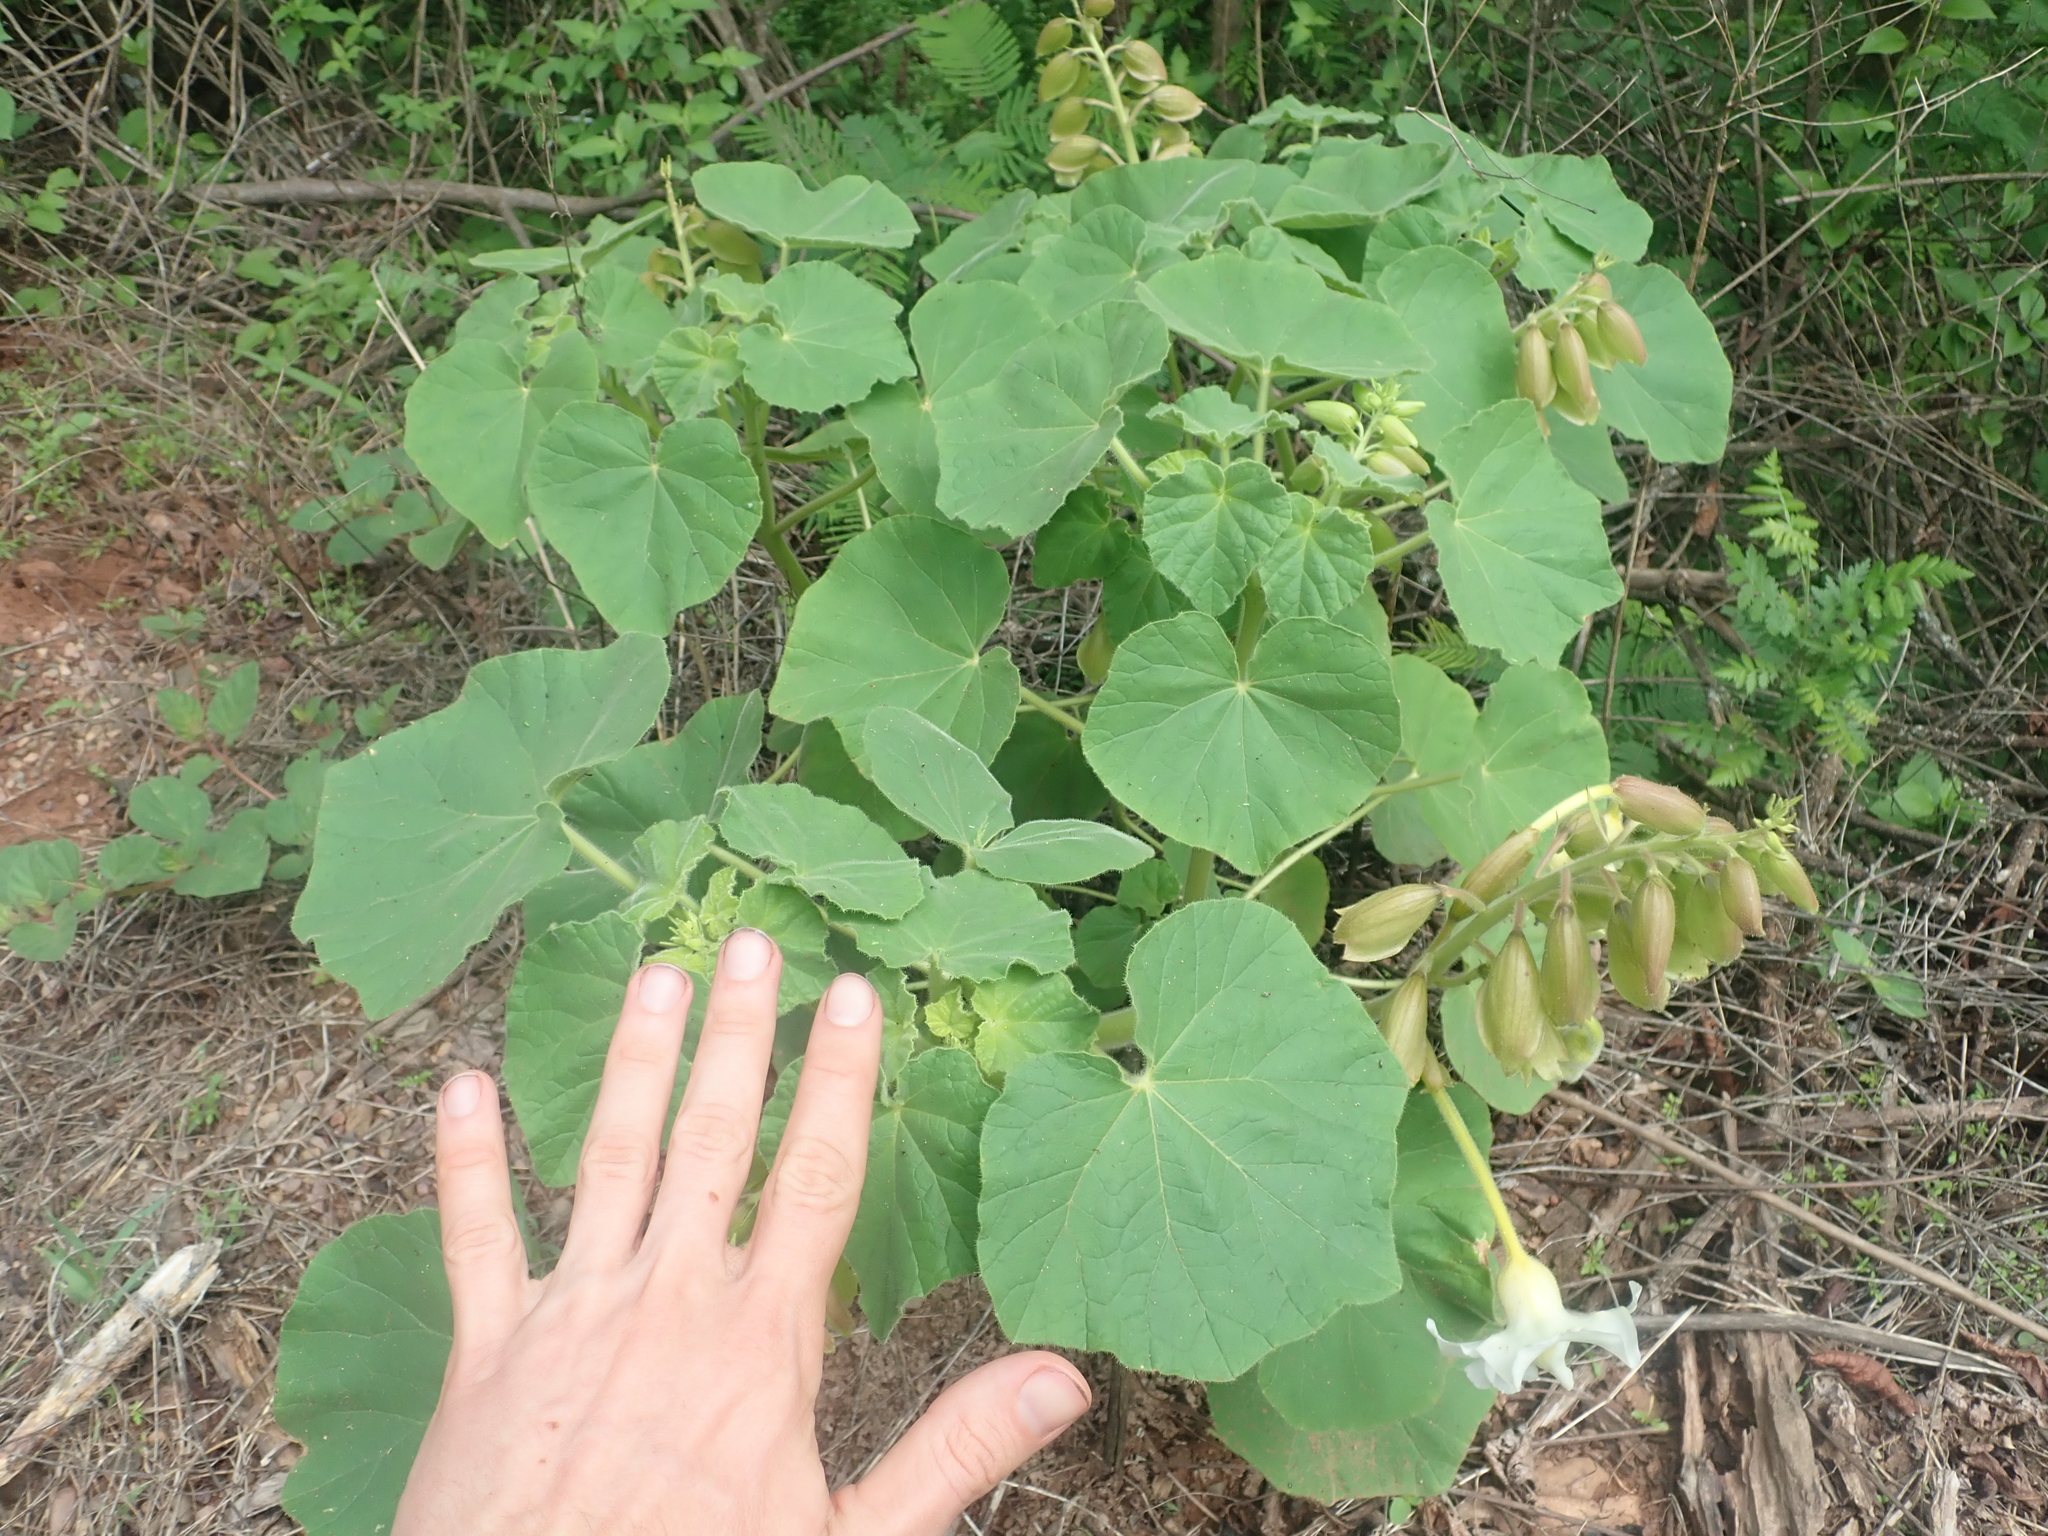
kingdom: Plantae
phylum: Tracheophyta
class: Magnoliopsida
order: Lamiales
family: Martyniaceae
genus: Craniolaria
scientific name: Craniolaria integrifolia
